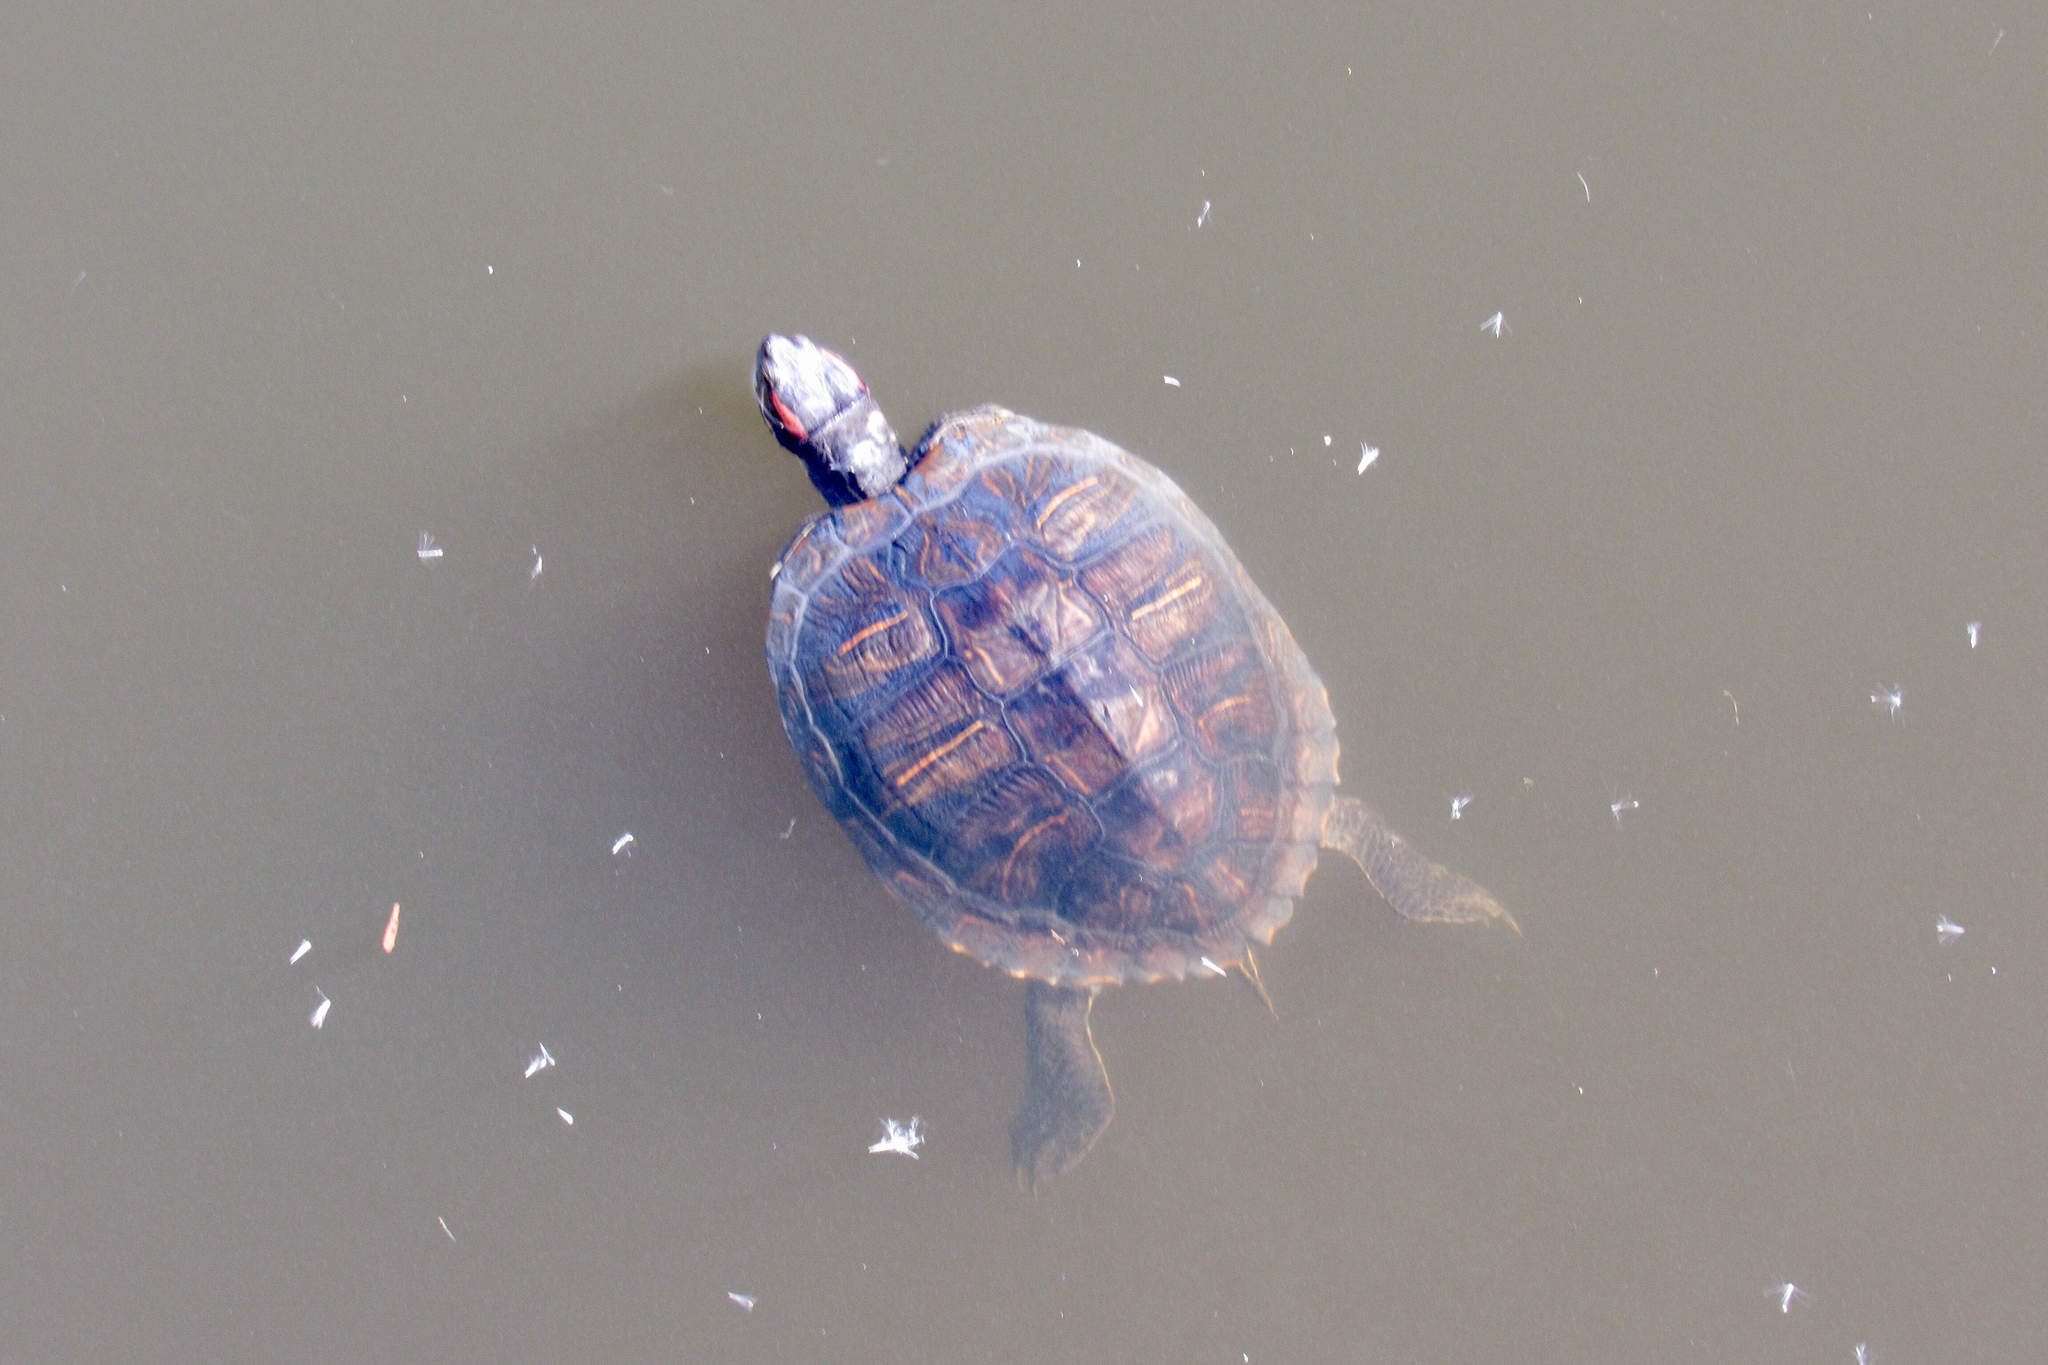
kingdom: Animalia
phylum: Chordata
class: Testudines
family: Emydidae
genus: Trachemys
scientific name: Trachemys scripta
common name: Slider
